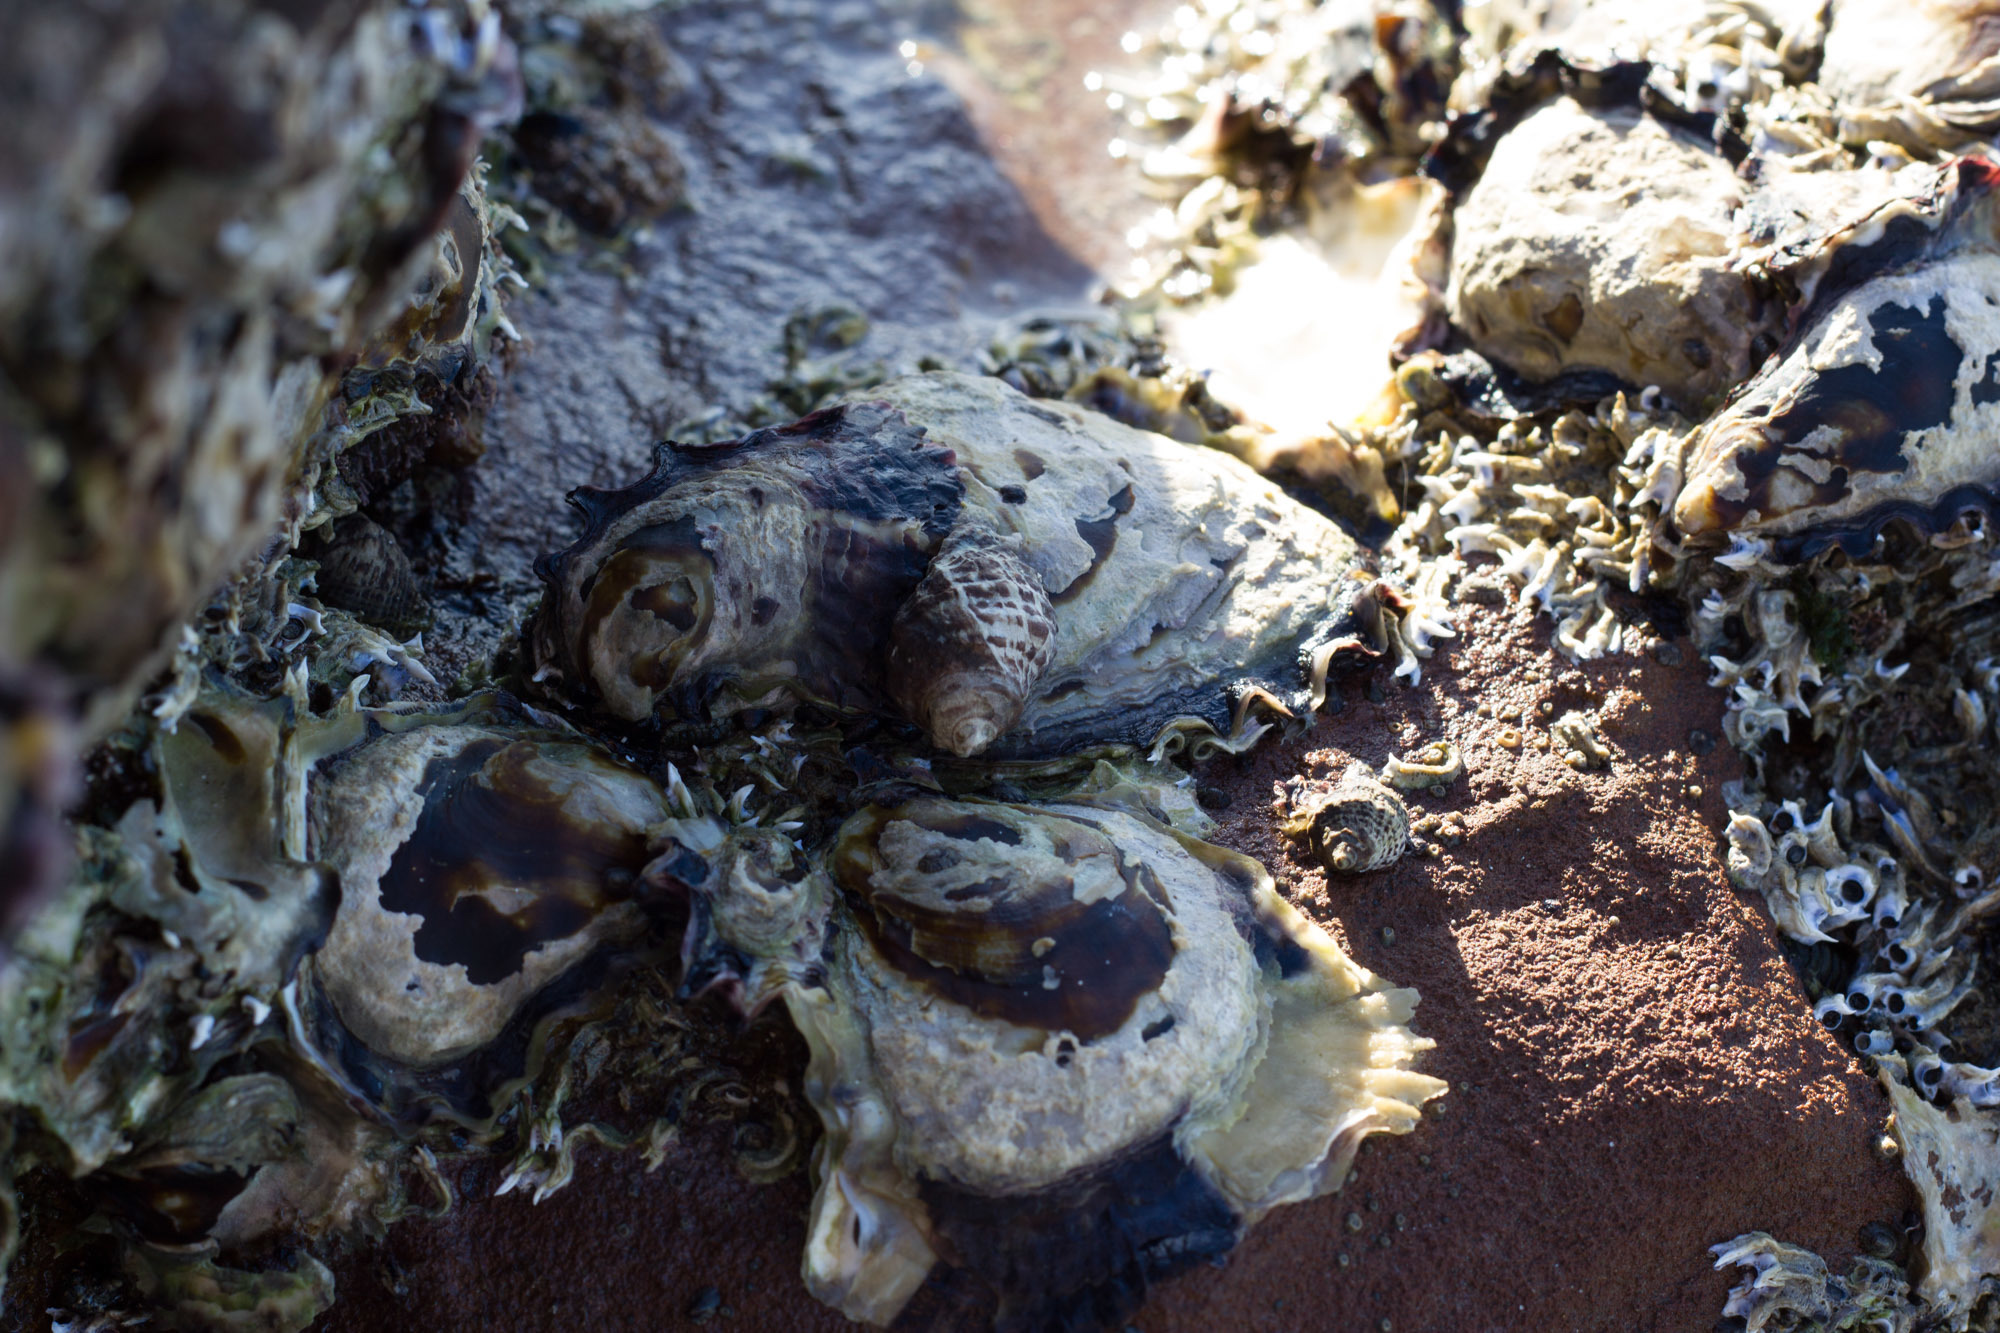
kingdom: Animalia
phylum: Mollusca
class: Bivalvia
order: Ostreida
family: Ostreidae
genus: Saccostrea
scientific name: Saccostrea glomerata
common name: Sydney cupped oyster
